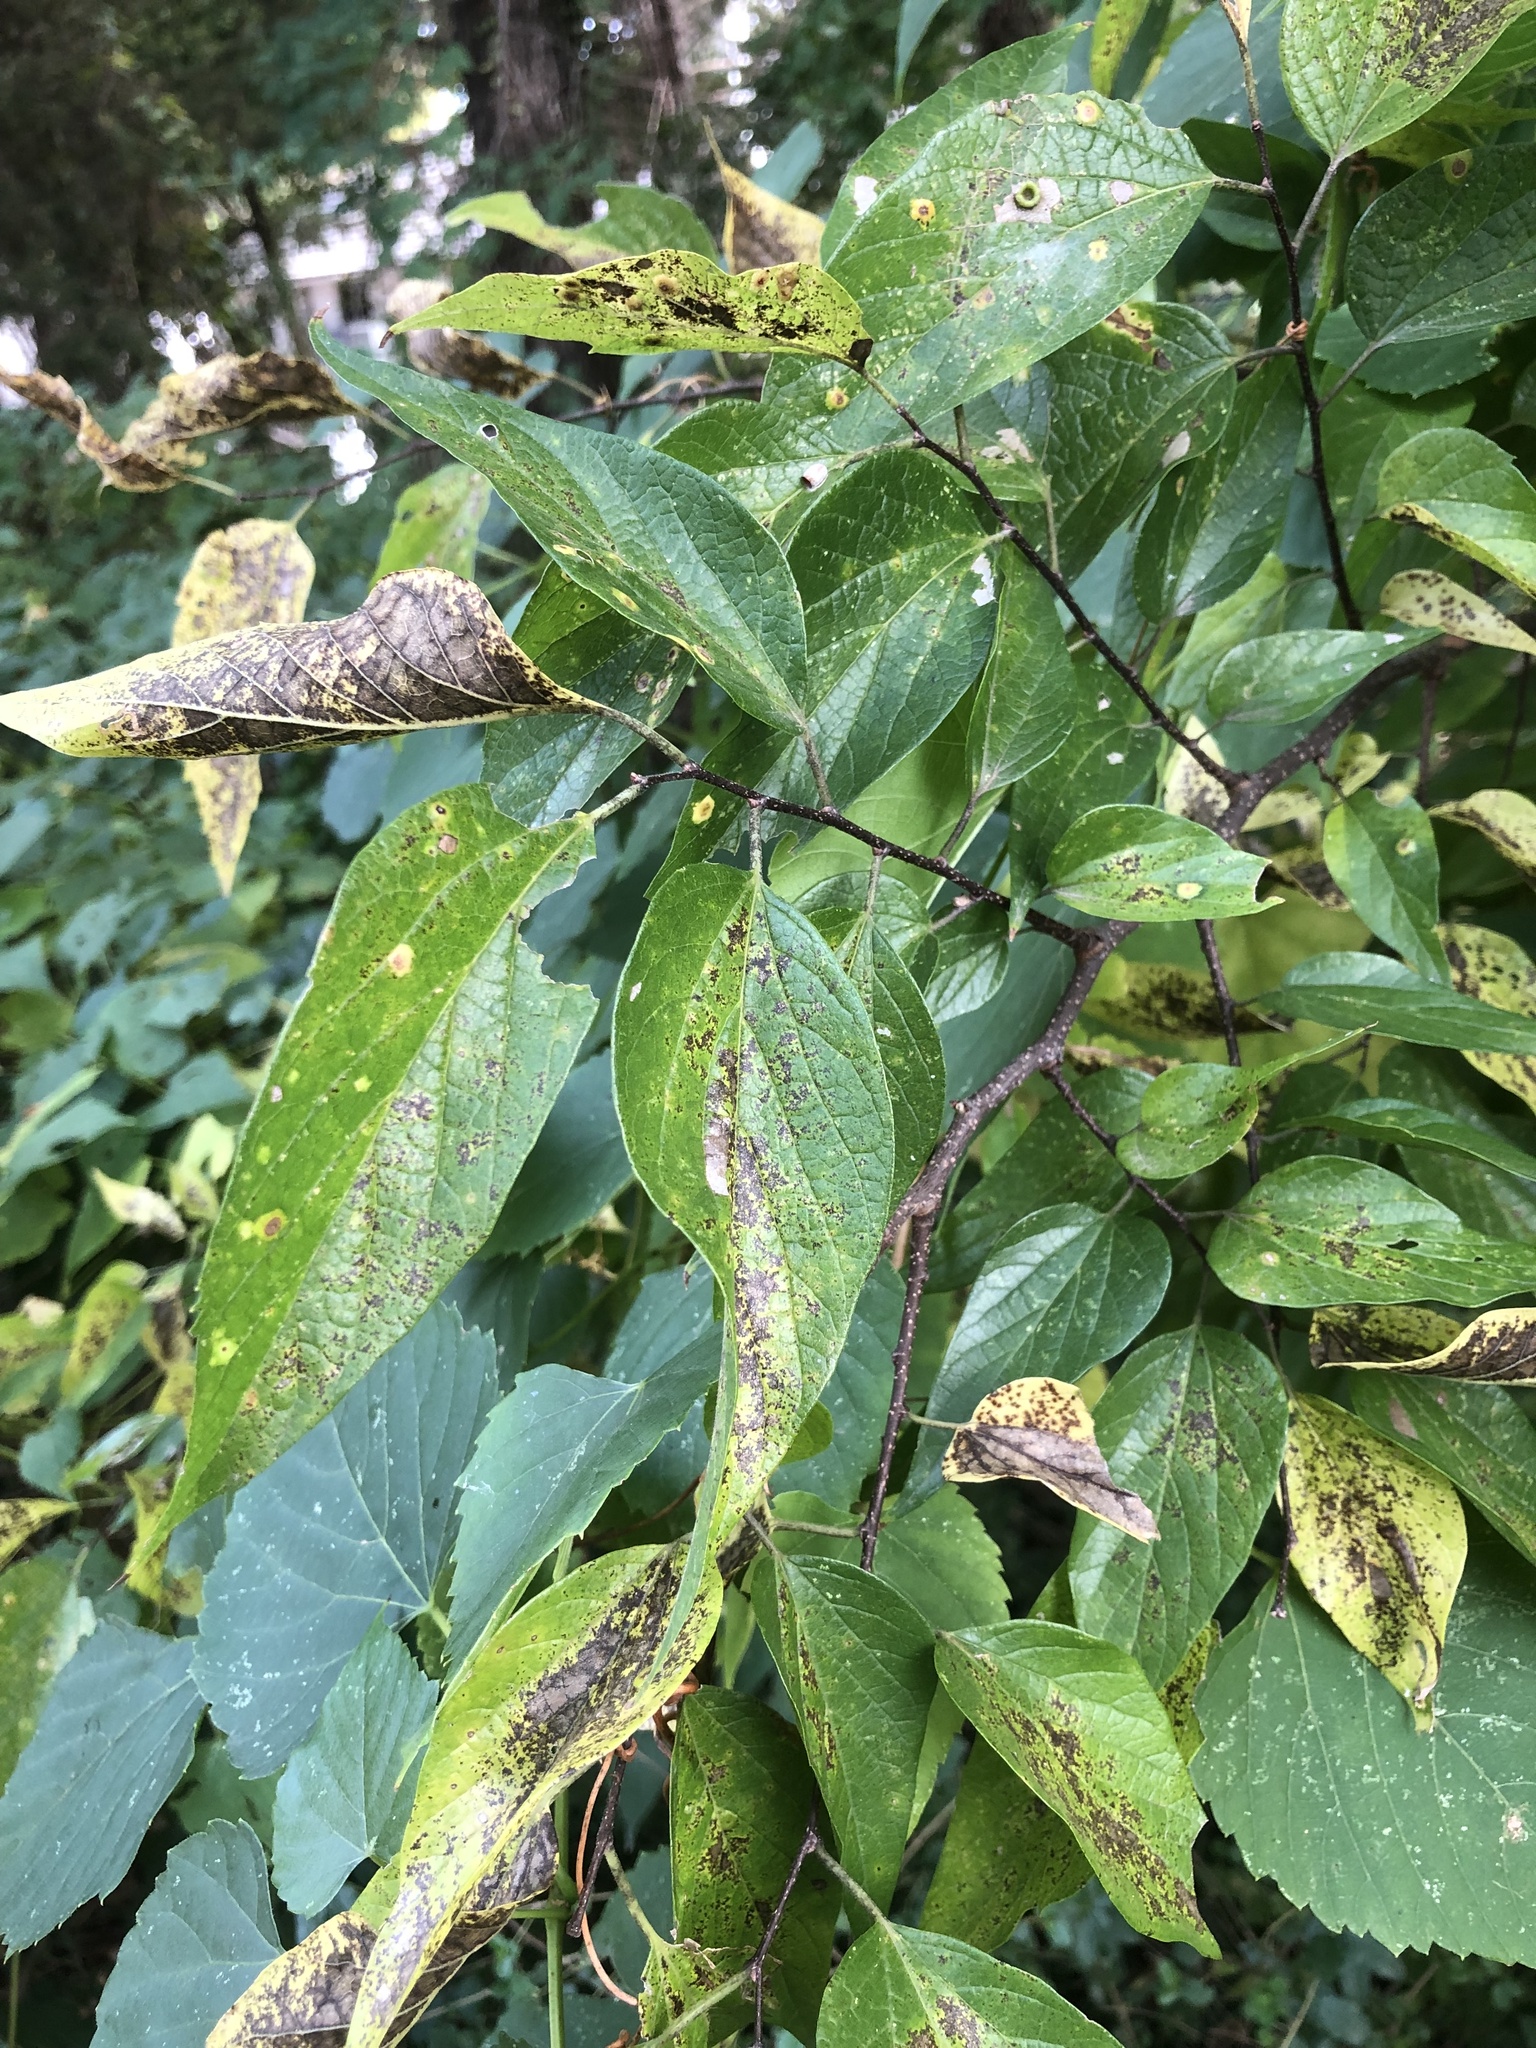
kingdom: Plantae
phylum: Tracheophyta
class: Magnoliopsida
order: Rosales
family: Cannabaceae
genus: Celtis
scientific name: Celtis laevigata
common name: Sugarberry
